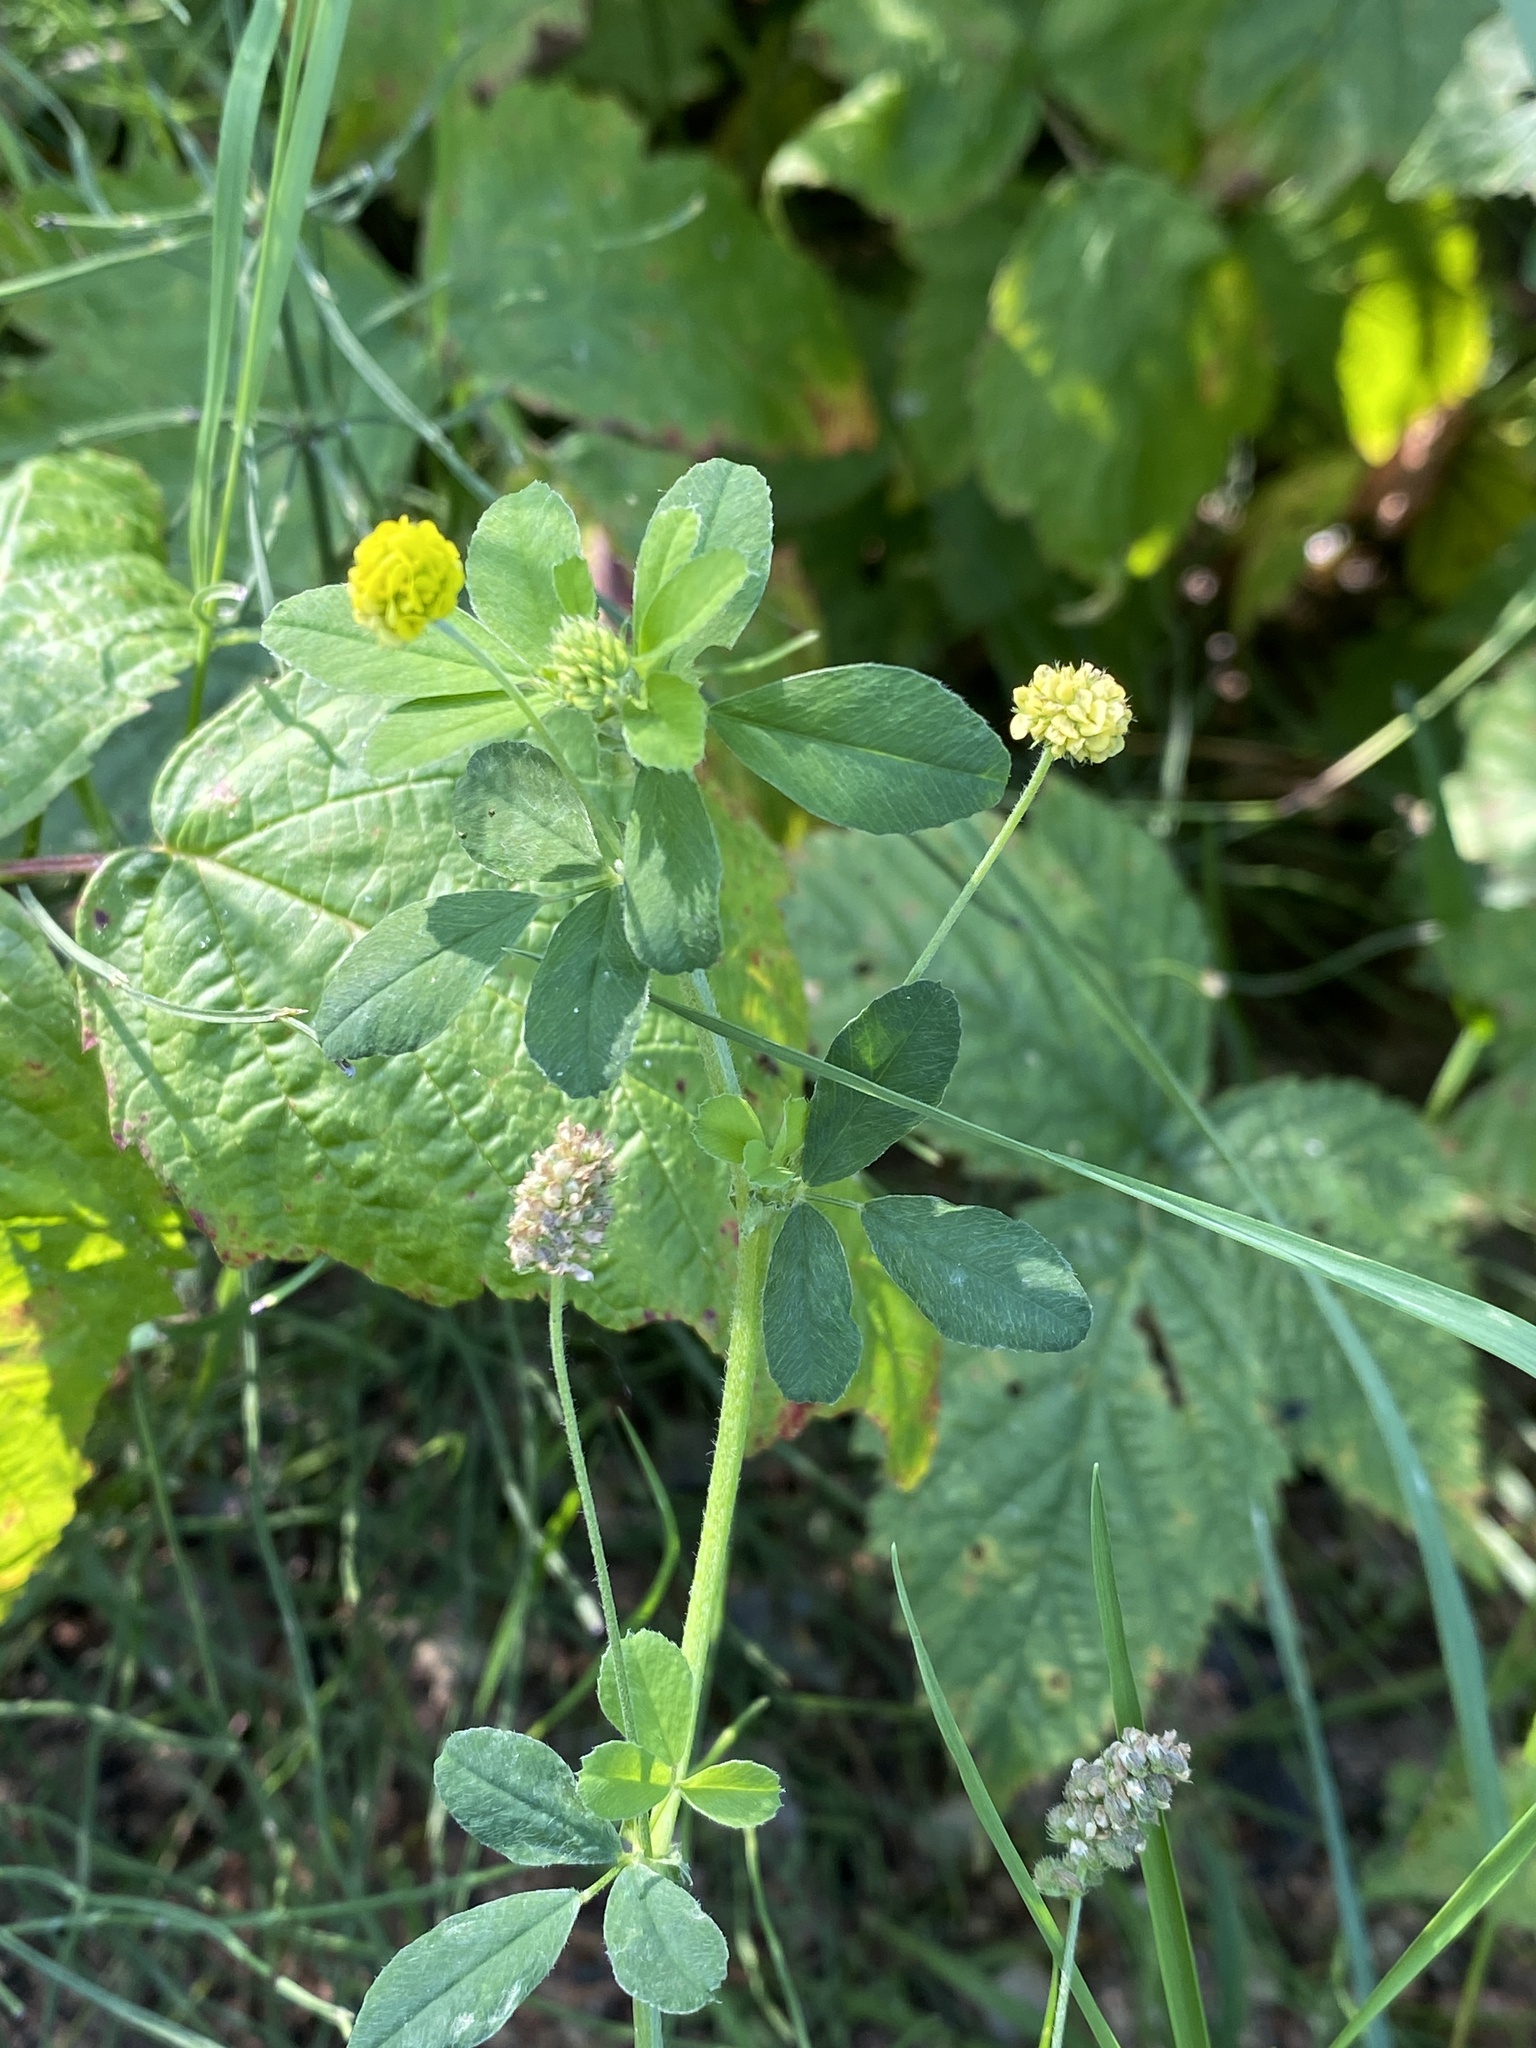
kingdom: Plantae
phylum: Tracheophyta
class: Magnoliopsida
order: Fabales
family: Fabaceae
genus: Medicago
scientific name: Medicago lupulina
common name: Black medick
